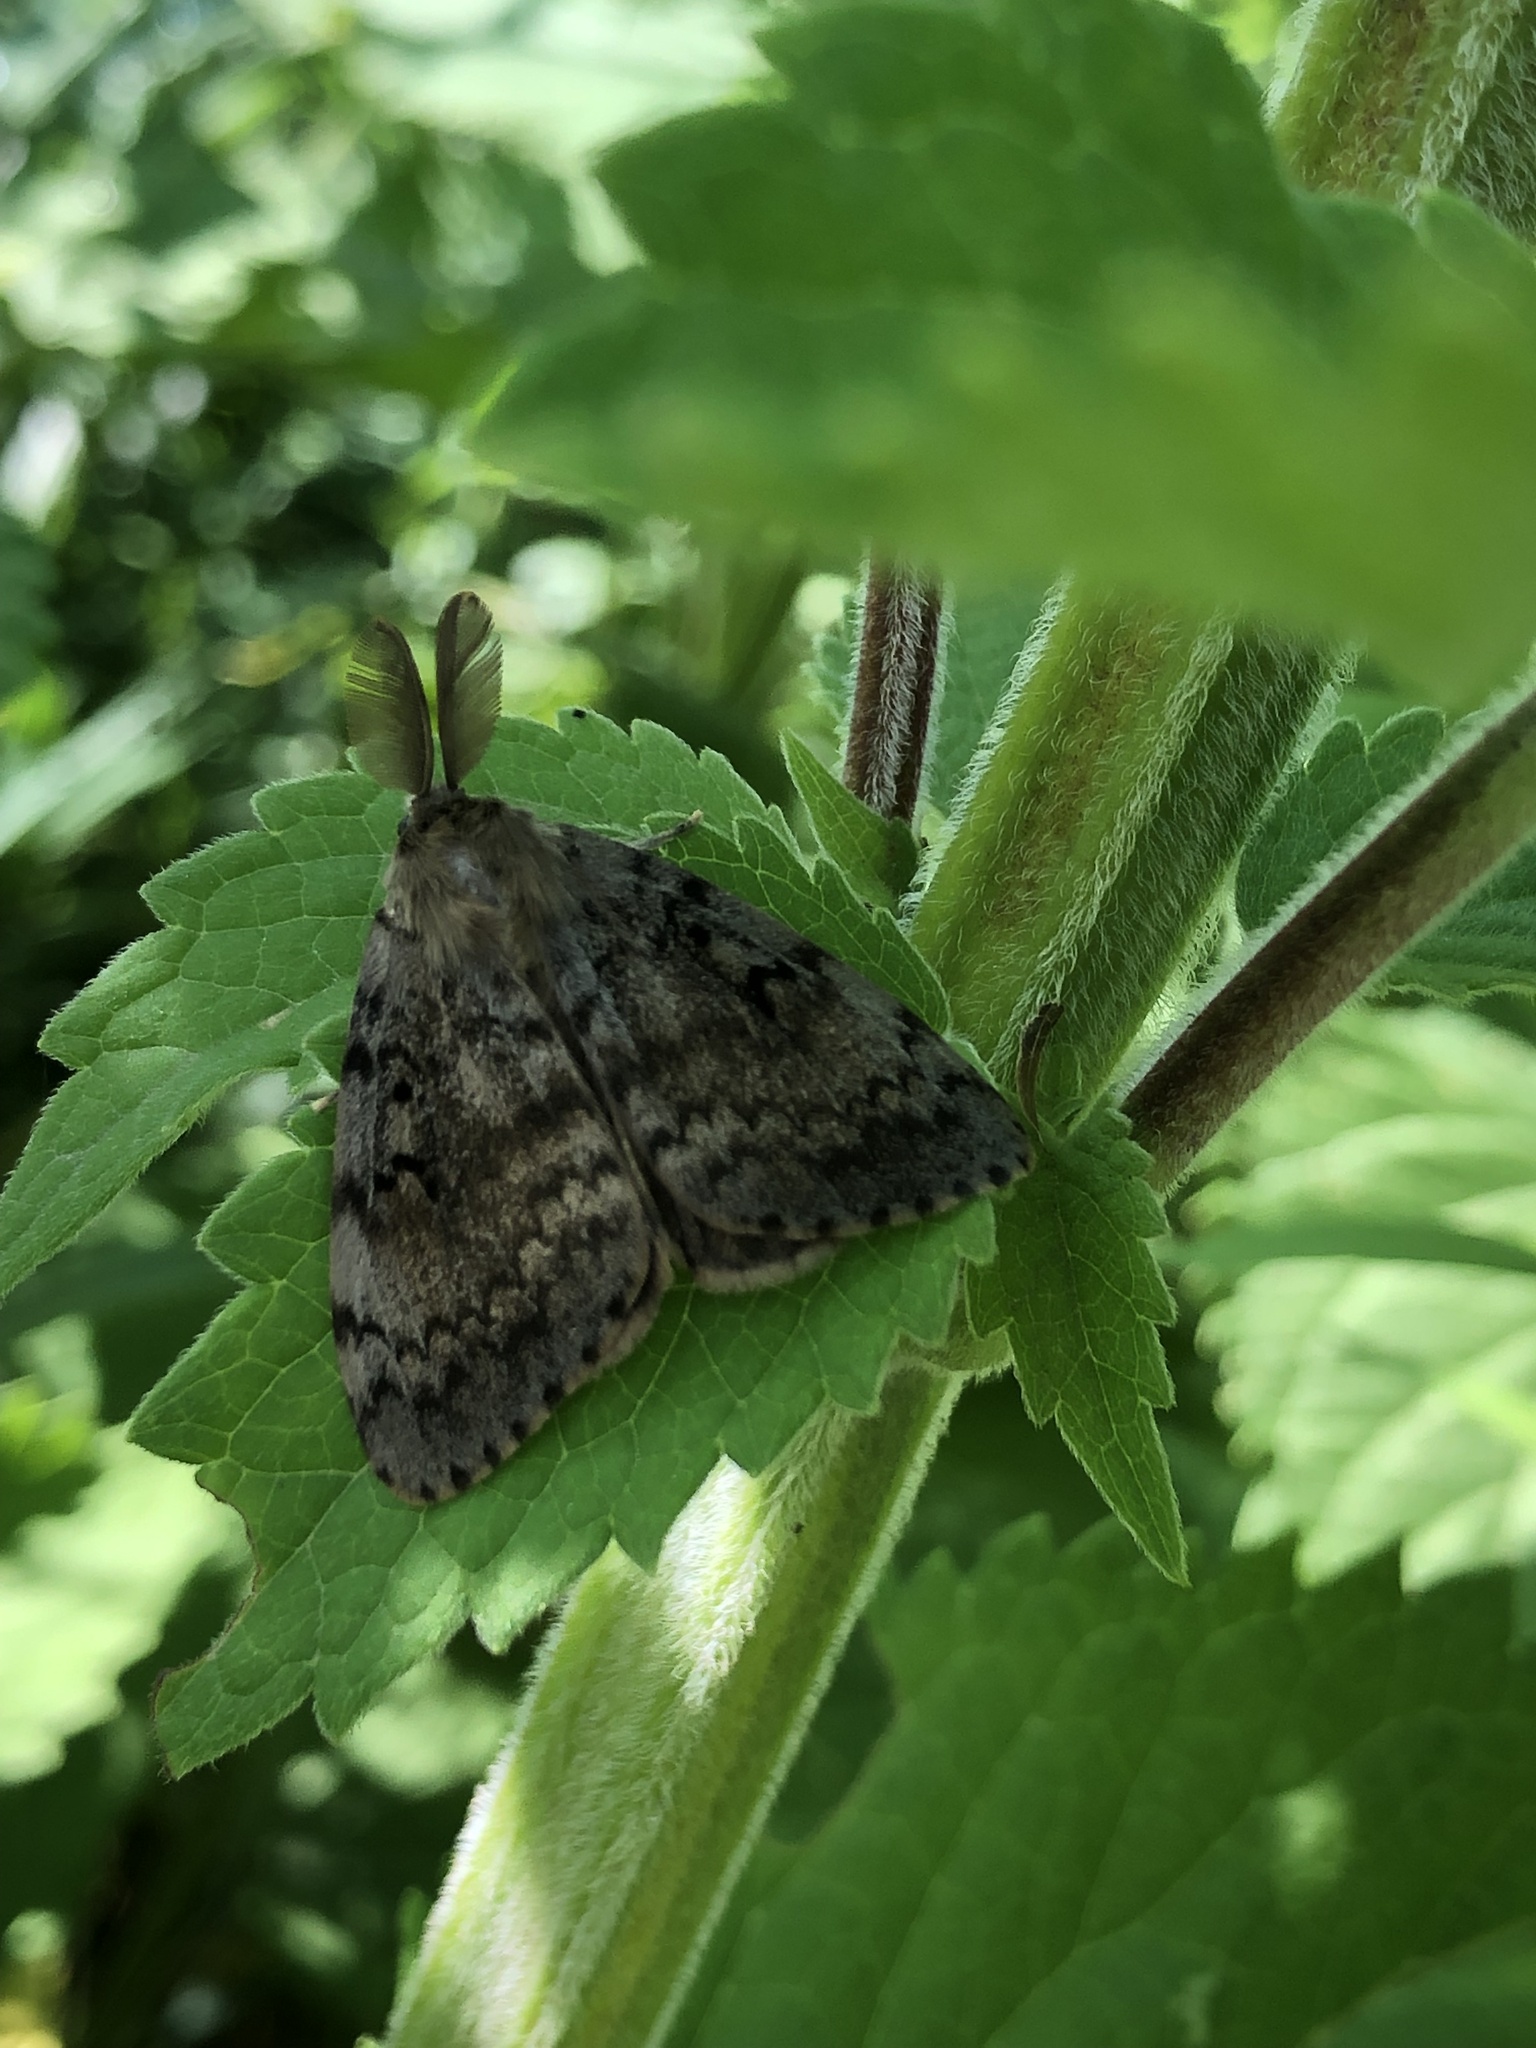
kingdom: Animalia
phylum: Arthropoda
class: Insecta
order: Lepidoptera
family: Erebidae
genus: Lymantria
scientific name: Lymantria dispar
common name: Gypsy moth
